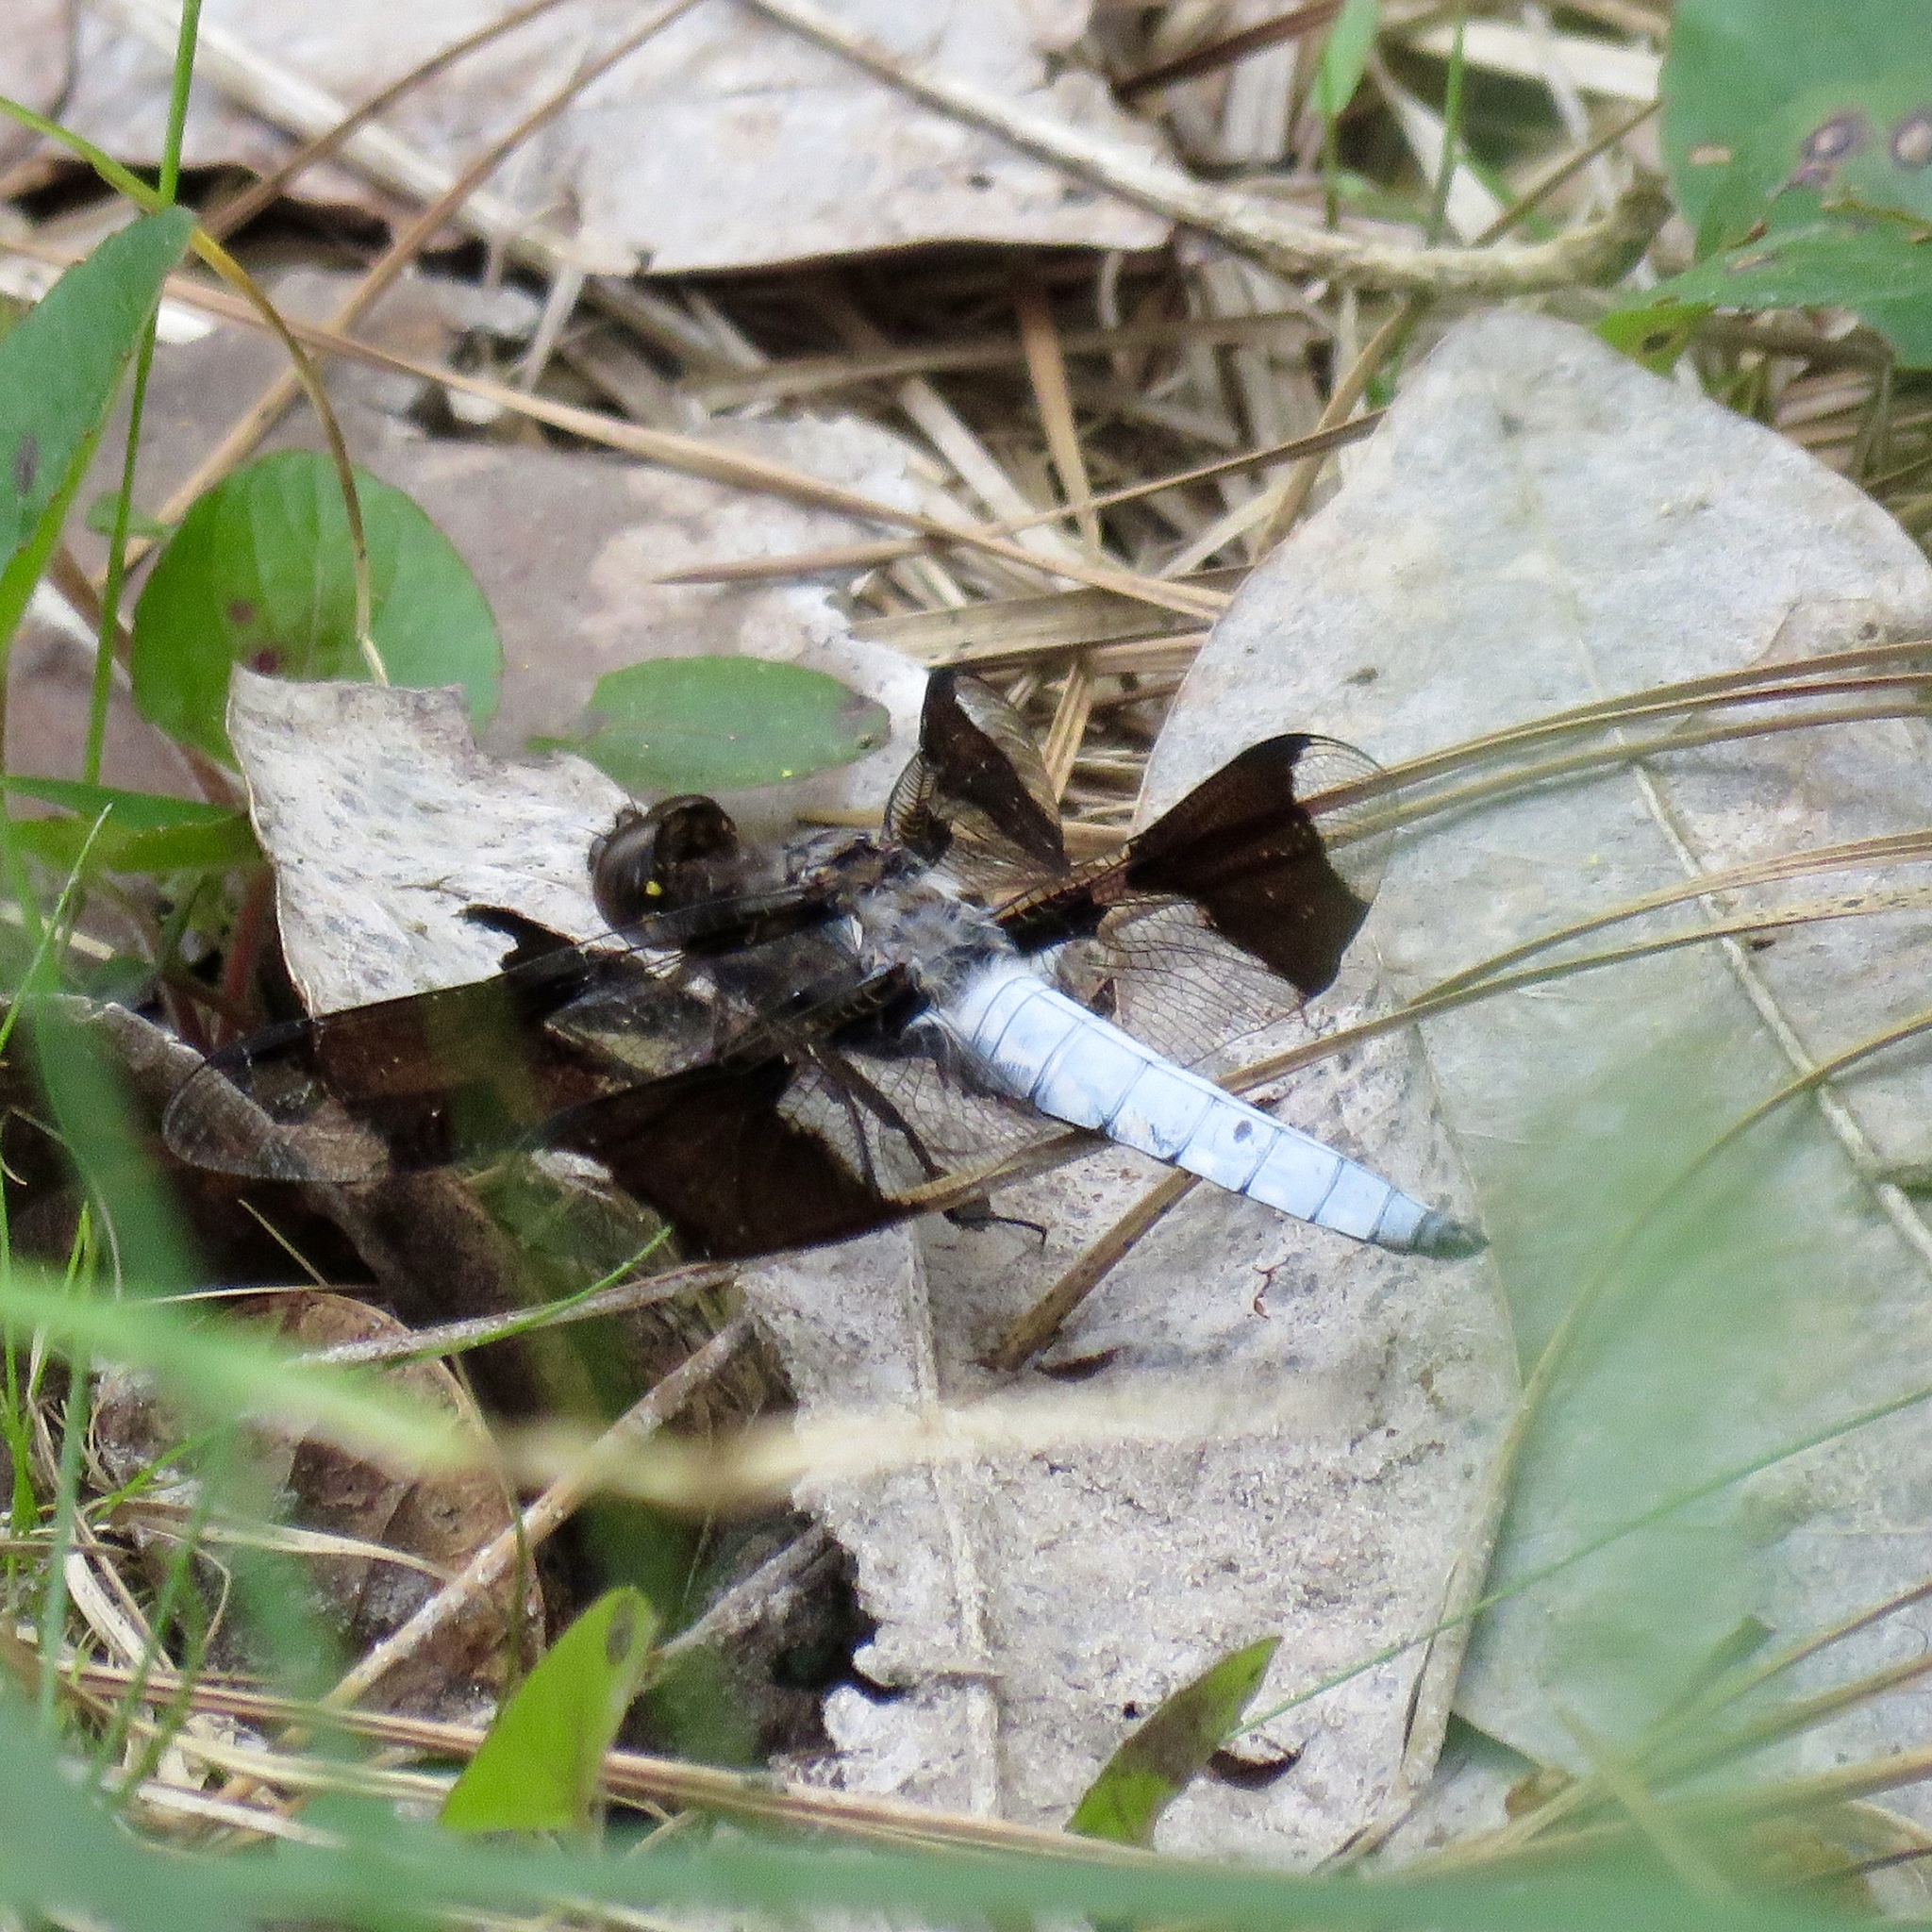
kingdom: Animalia
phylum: Arthropoda
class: Insecta
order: Odonata
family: Libellulidae
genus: Plathemis
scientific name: Plathemis lydia
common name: Common whitetail
